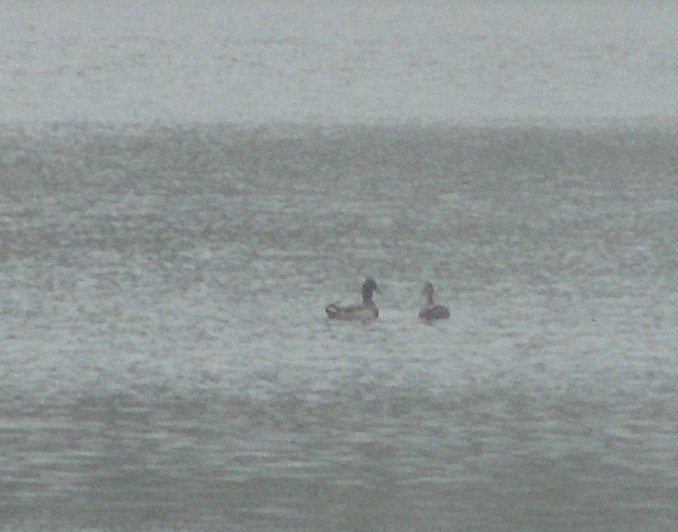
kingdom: Animalia
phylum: Chordata
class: Aves
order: Anseriformes
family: Anatidae
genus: Anas
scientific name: Anas platyrhynchos
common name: Mallard
